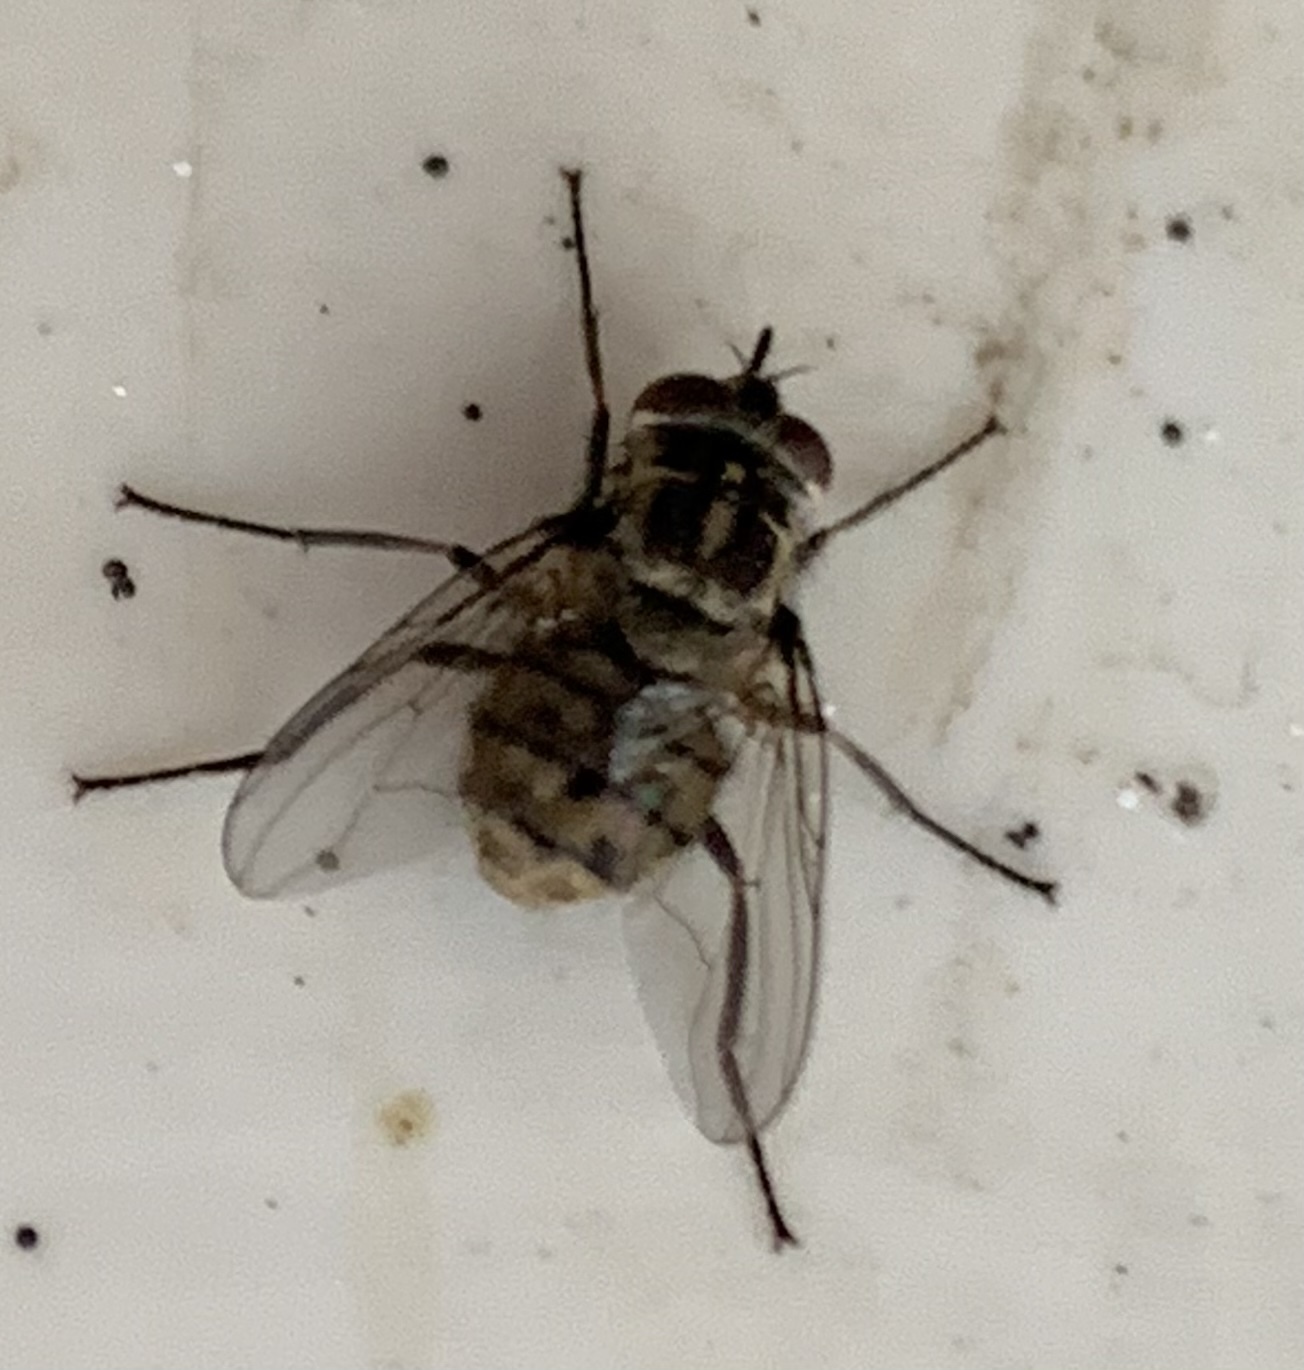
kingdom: Animalia
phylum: Arthropoda
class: Insecta
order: Diptera
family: Muscidae
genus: Stomoxys
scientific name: Stomoxys calcitrans
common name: Stable fly
